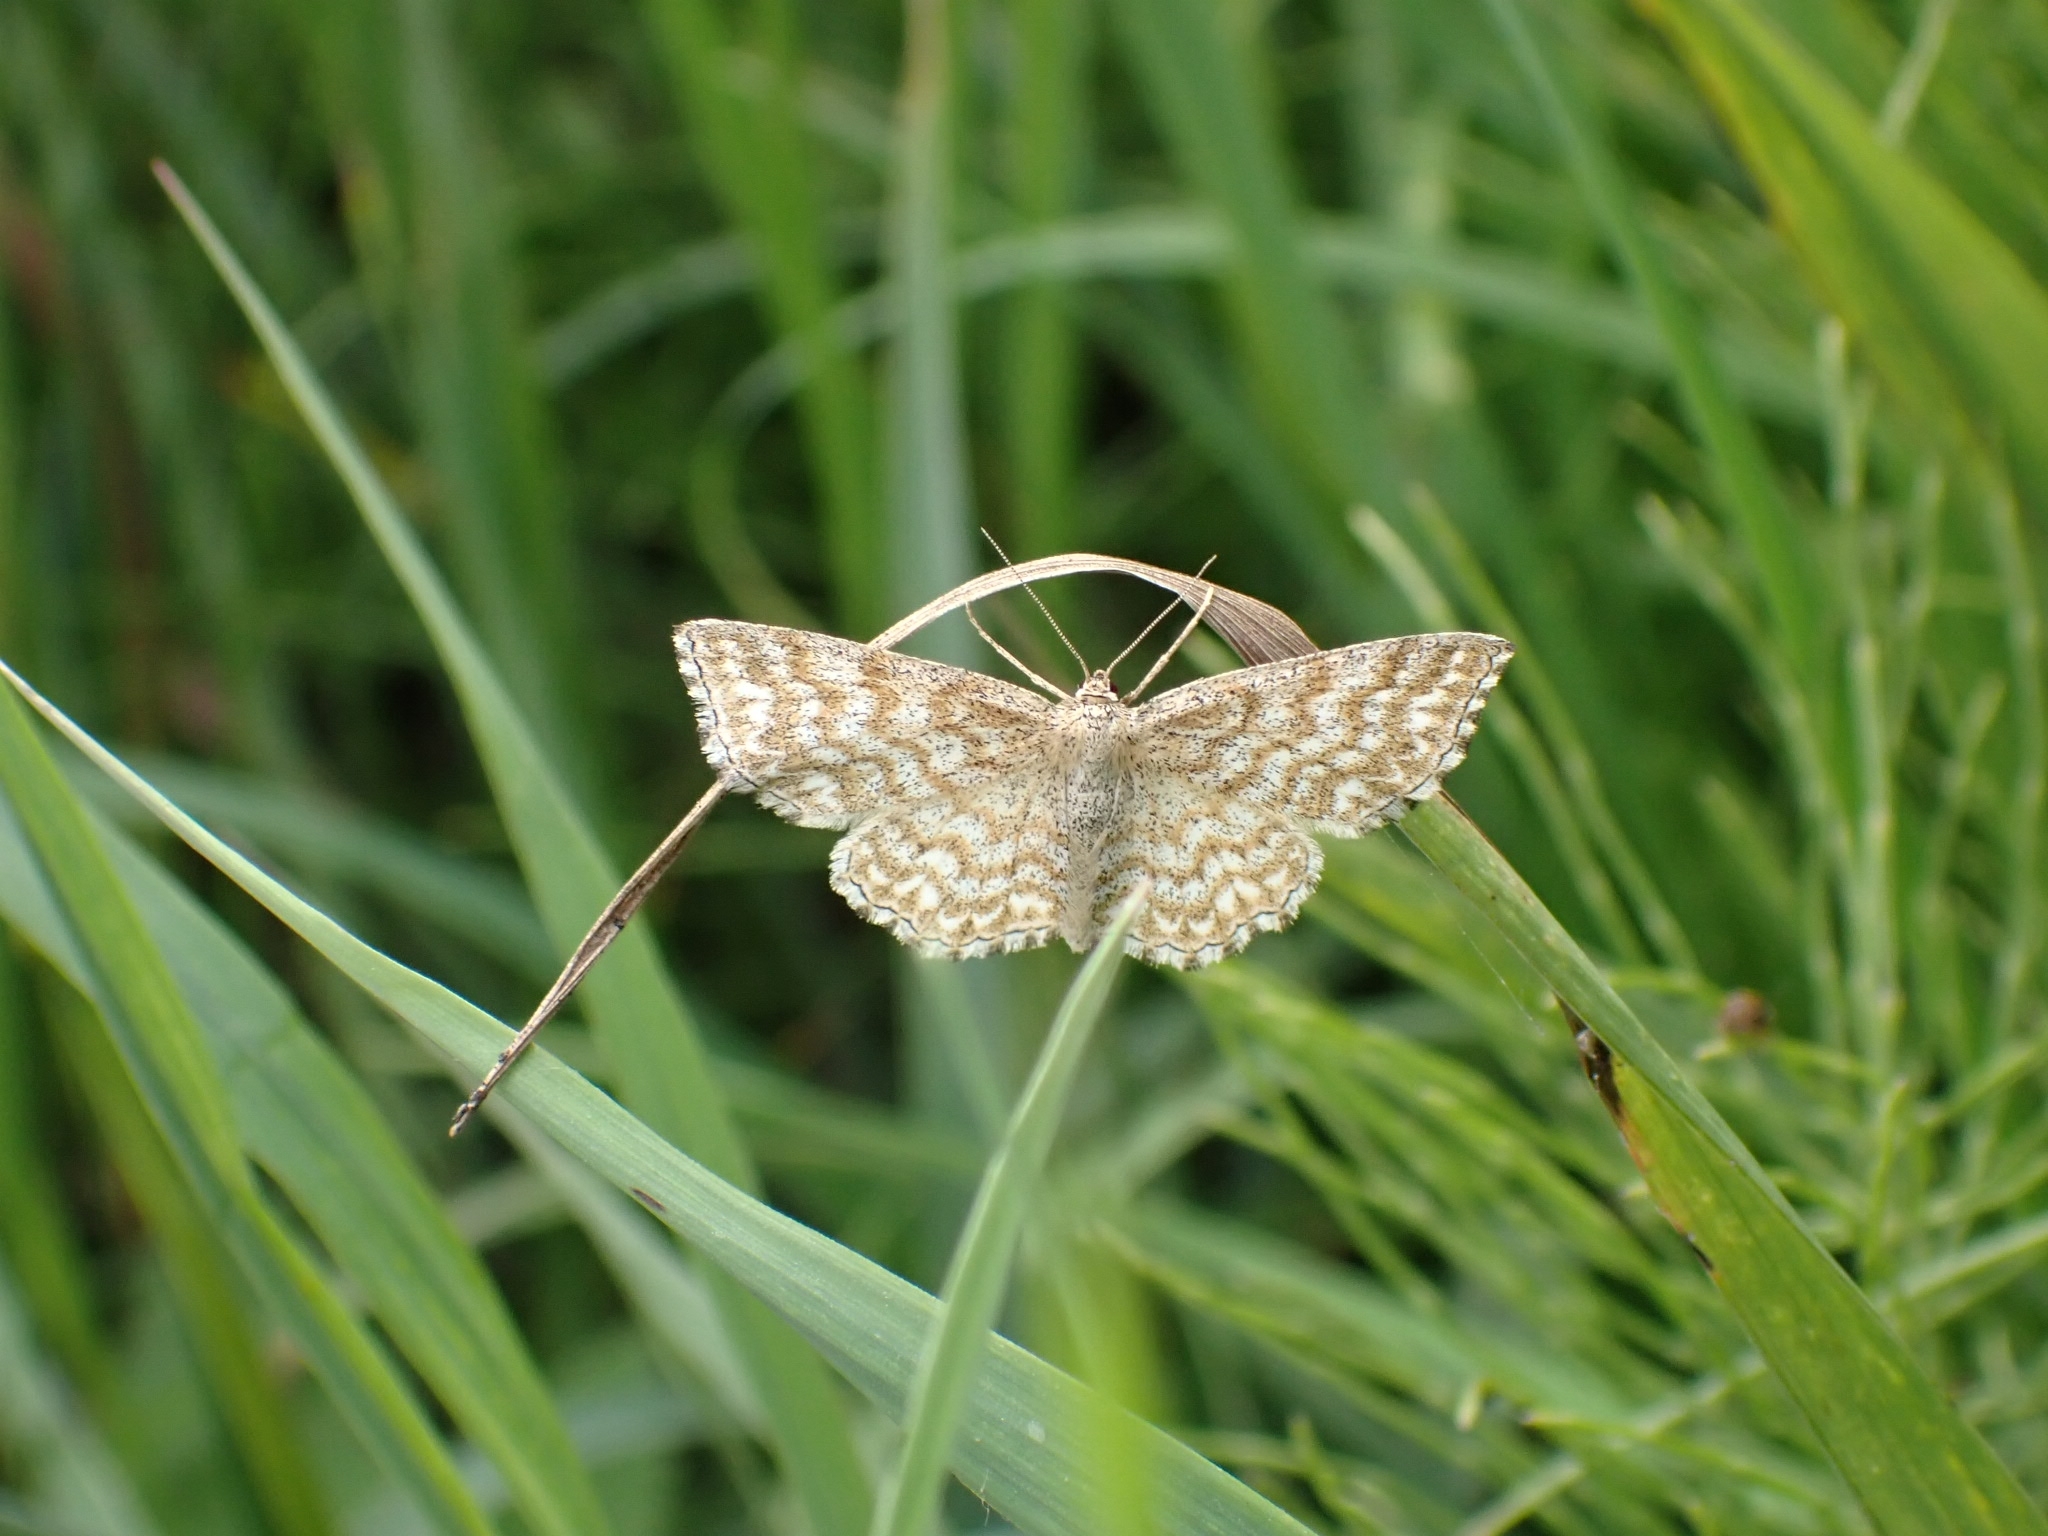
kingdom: Animalia
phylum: Arthropoda
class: Insecta
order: Lepidoptera
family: Geometridae
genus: Scopula
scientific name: Scopula immorata
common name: Lewes wave
